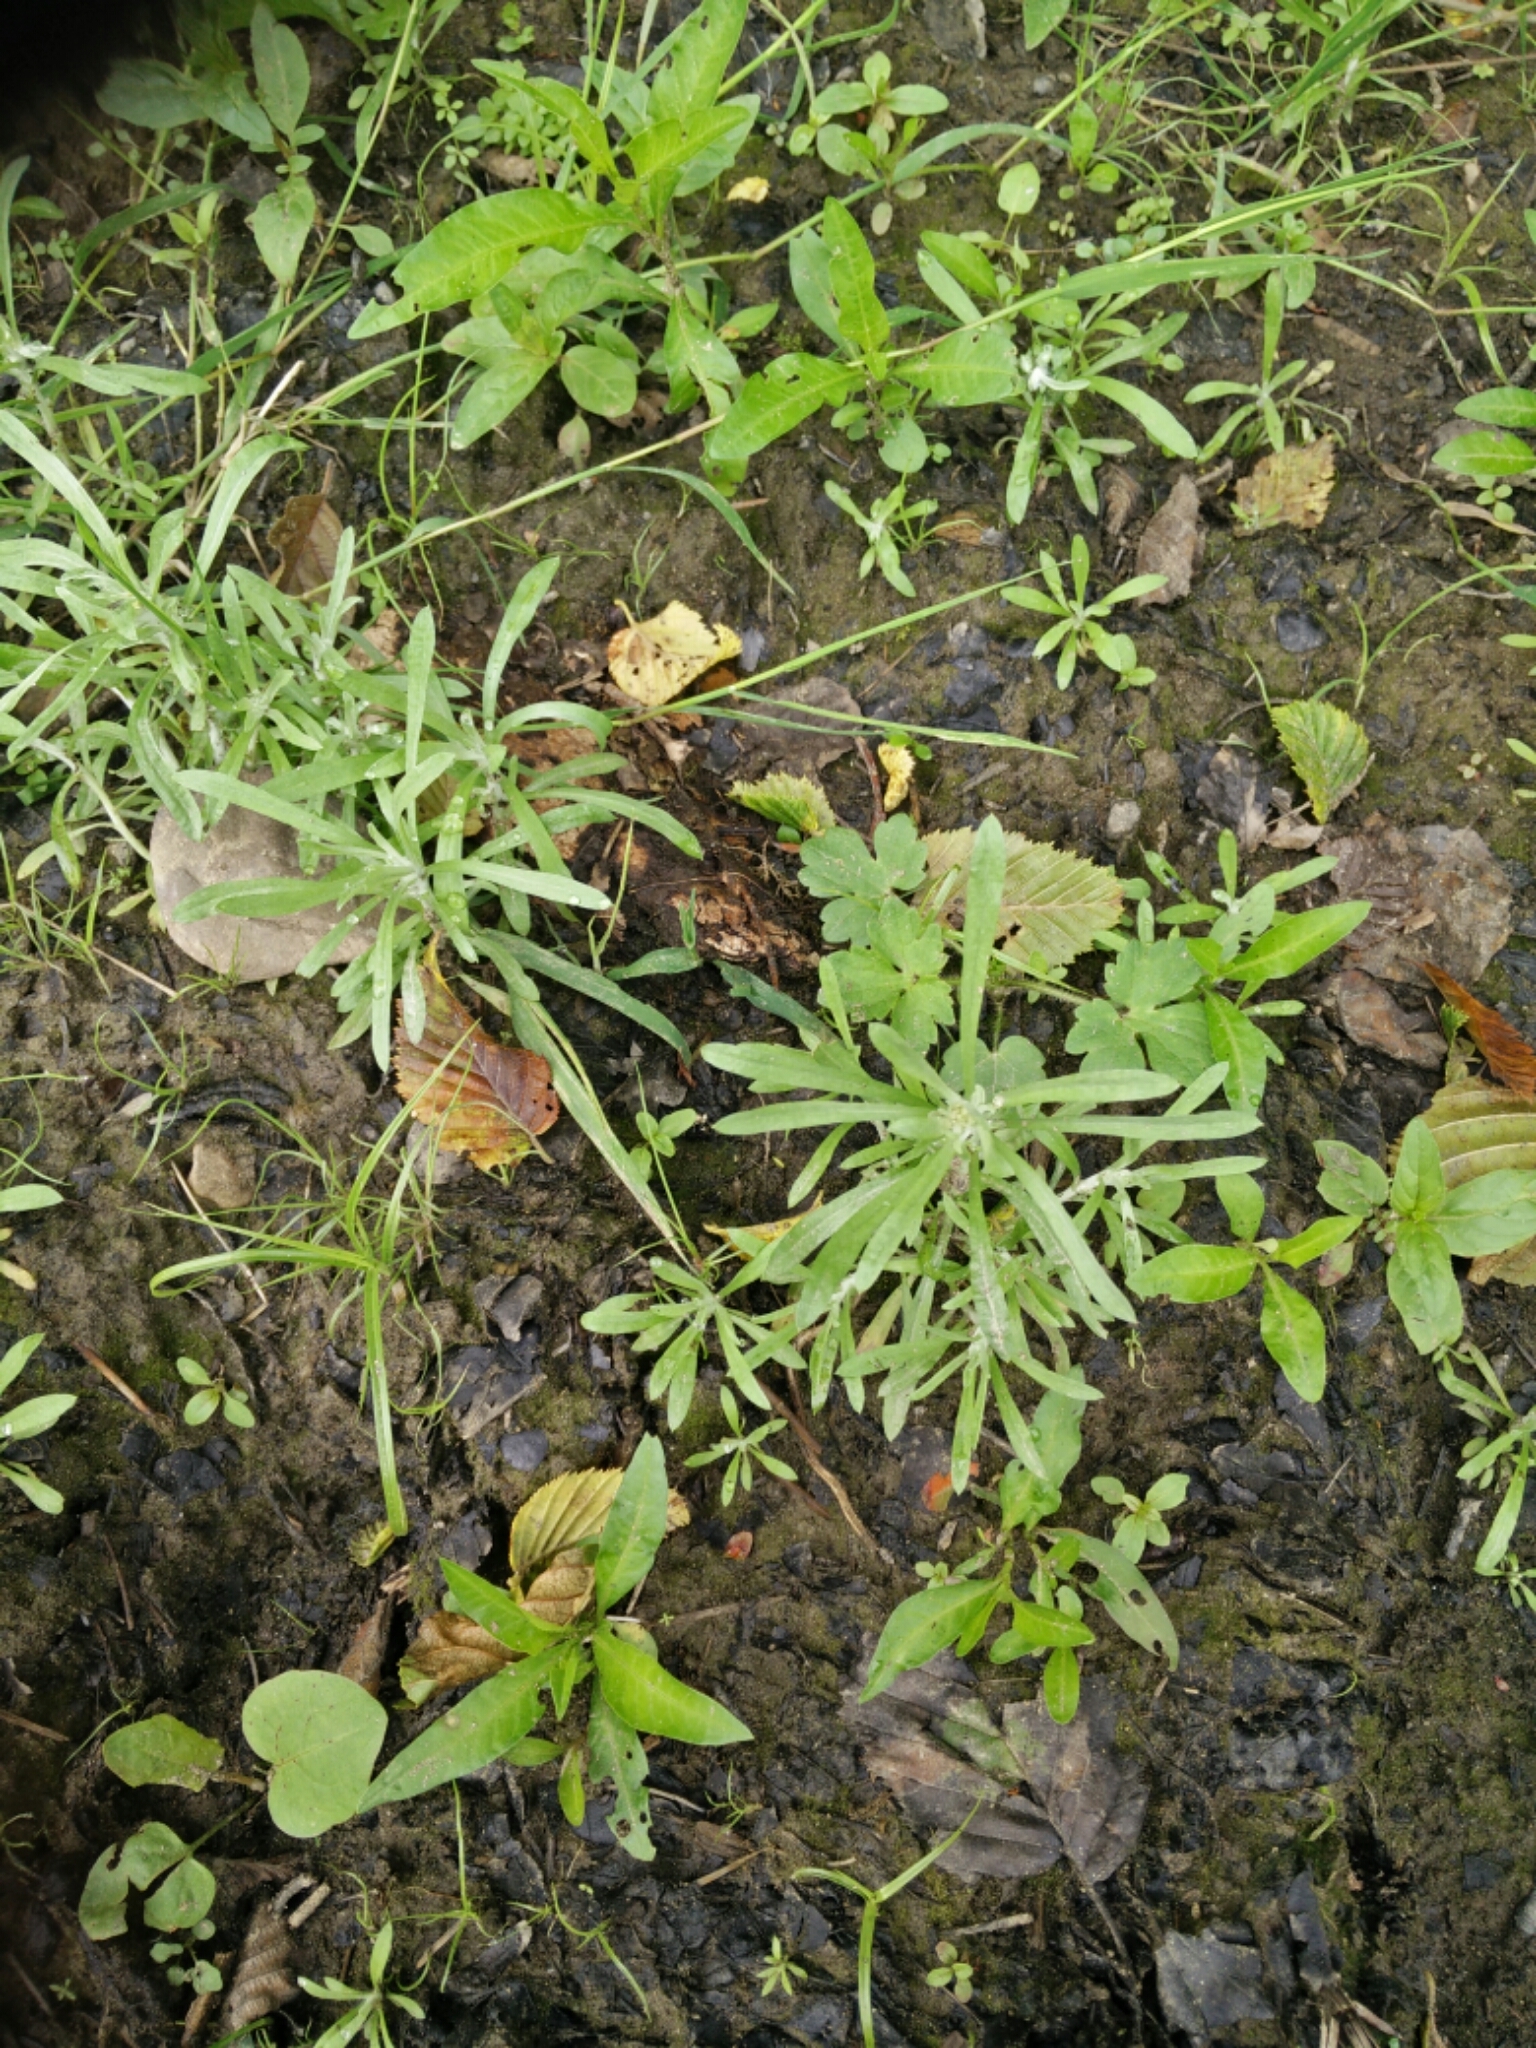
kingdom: Plantae
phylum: Tracheophyta
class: Magnoliopsida
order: Asterales
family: Asteraceae
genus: Gnaphalium
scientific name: Gnaphalium uliginosum
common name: Marsh cudweed
